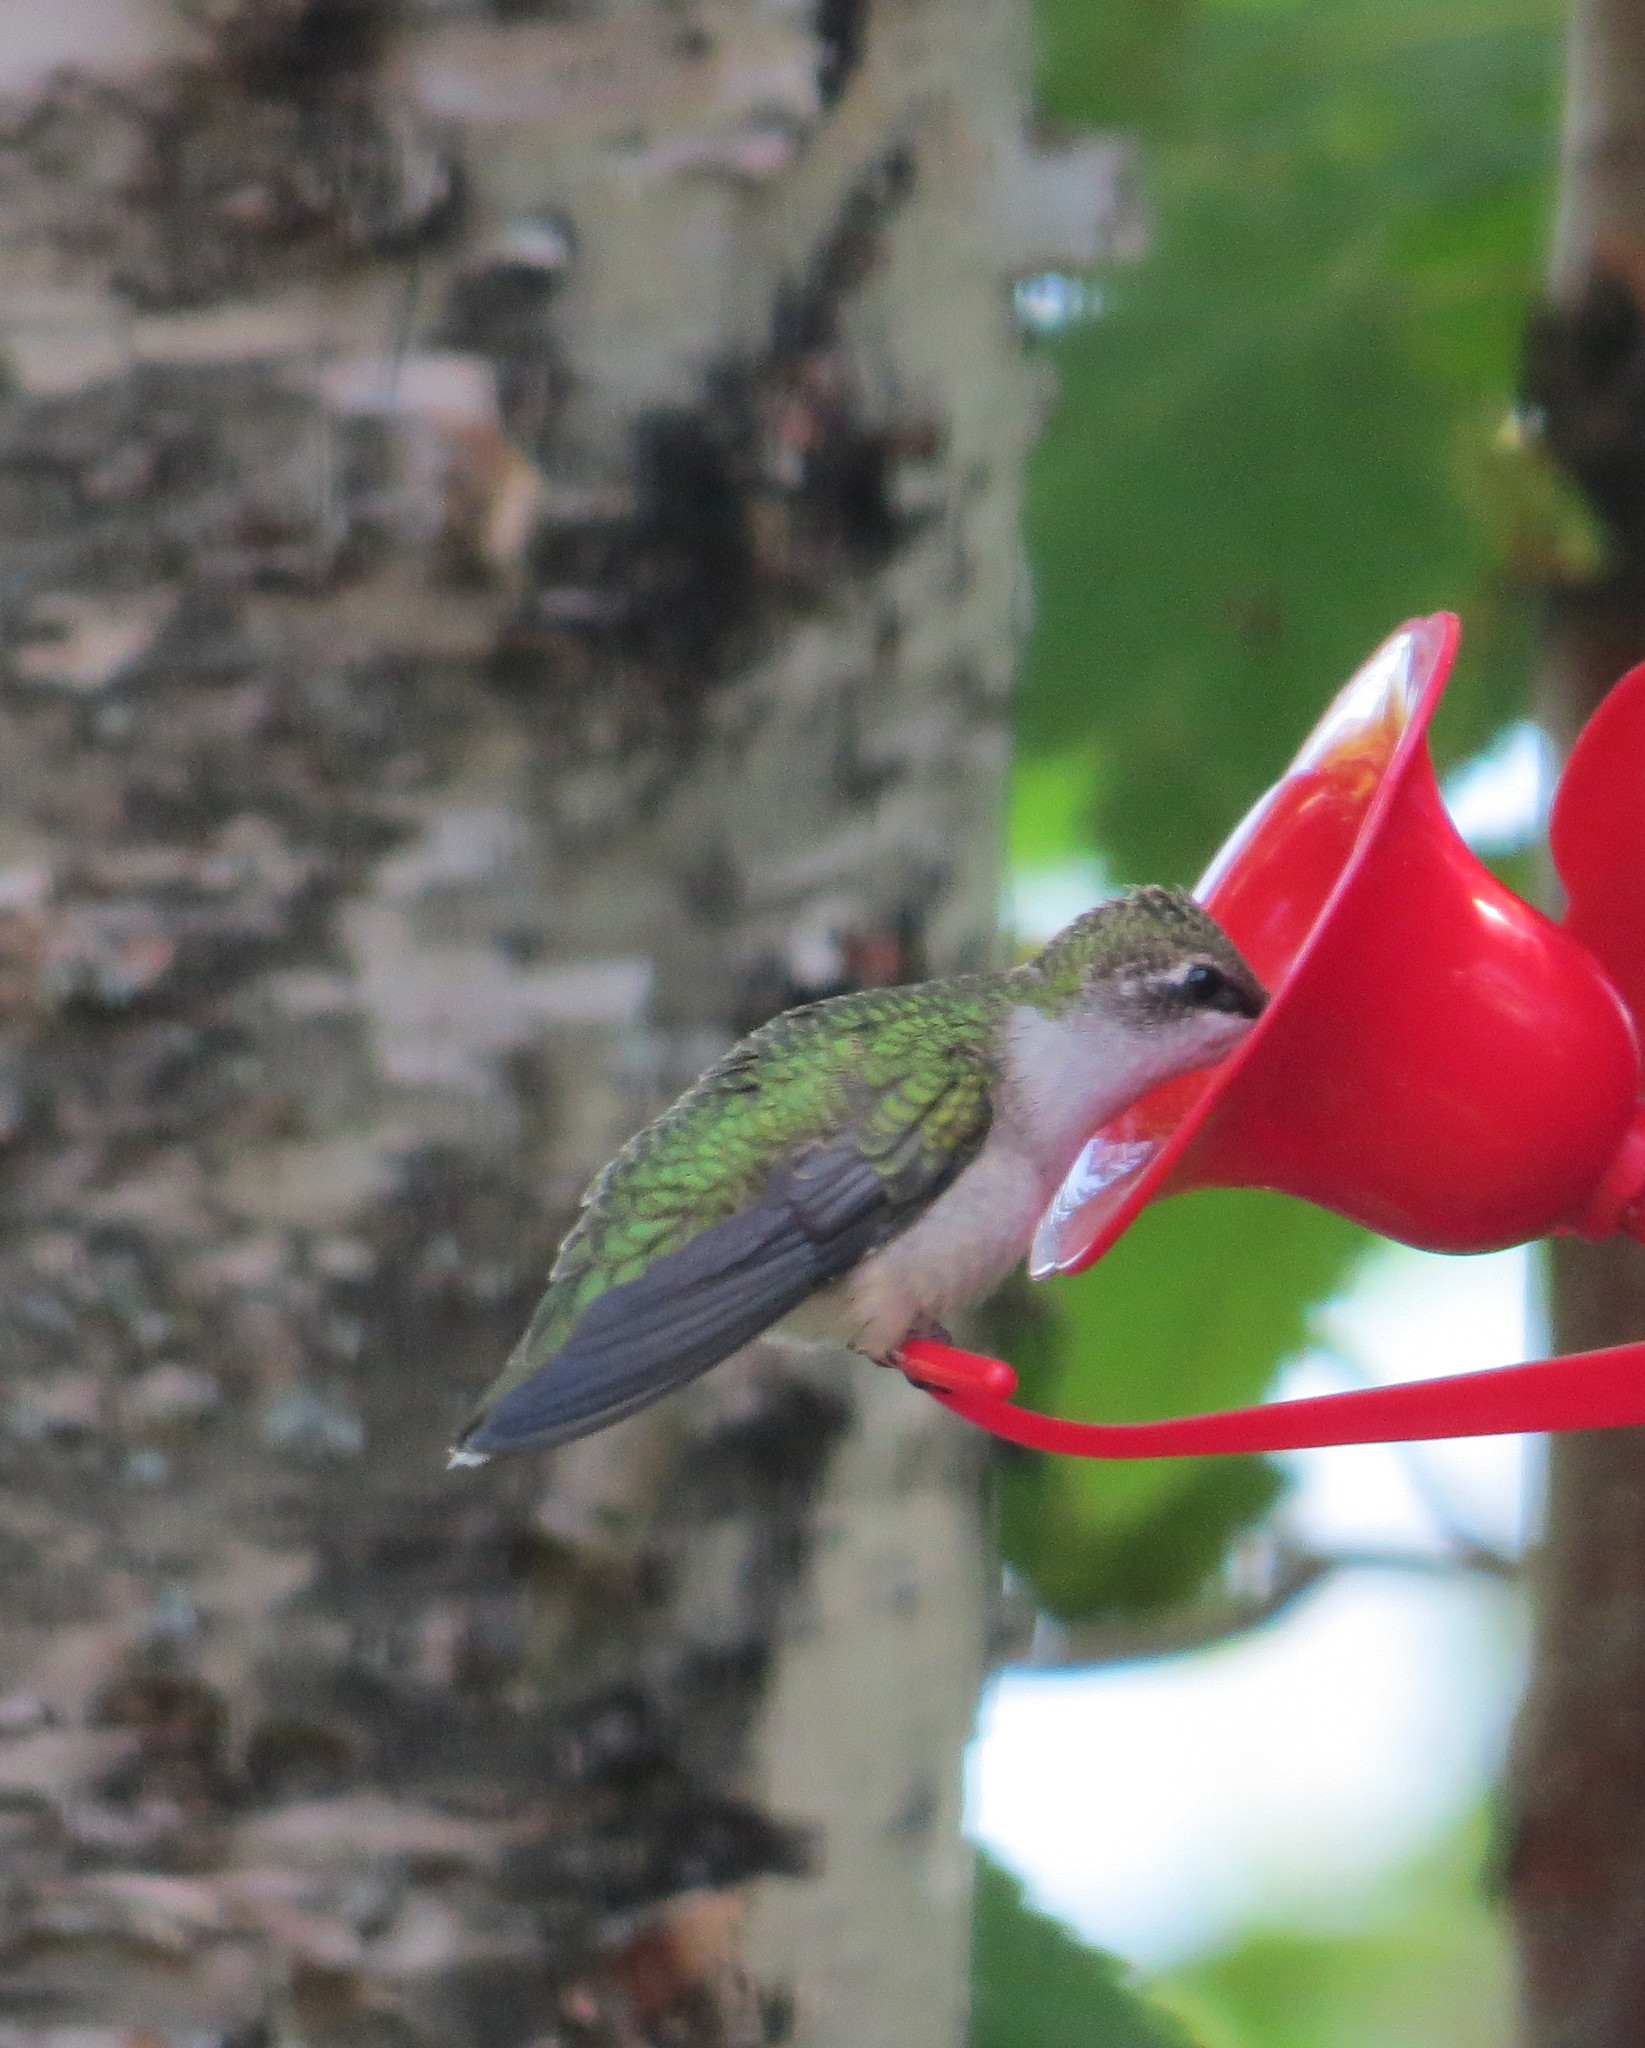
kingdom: Animalia
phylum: Chordata
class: Aves
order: Apodiformes
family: Trochilidae
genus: Archilochus
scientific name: Archilochus colubris
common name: Ruby-throated hummingbird
